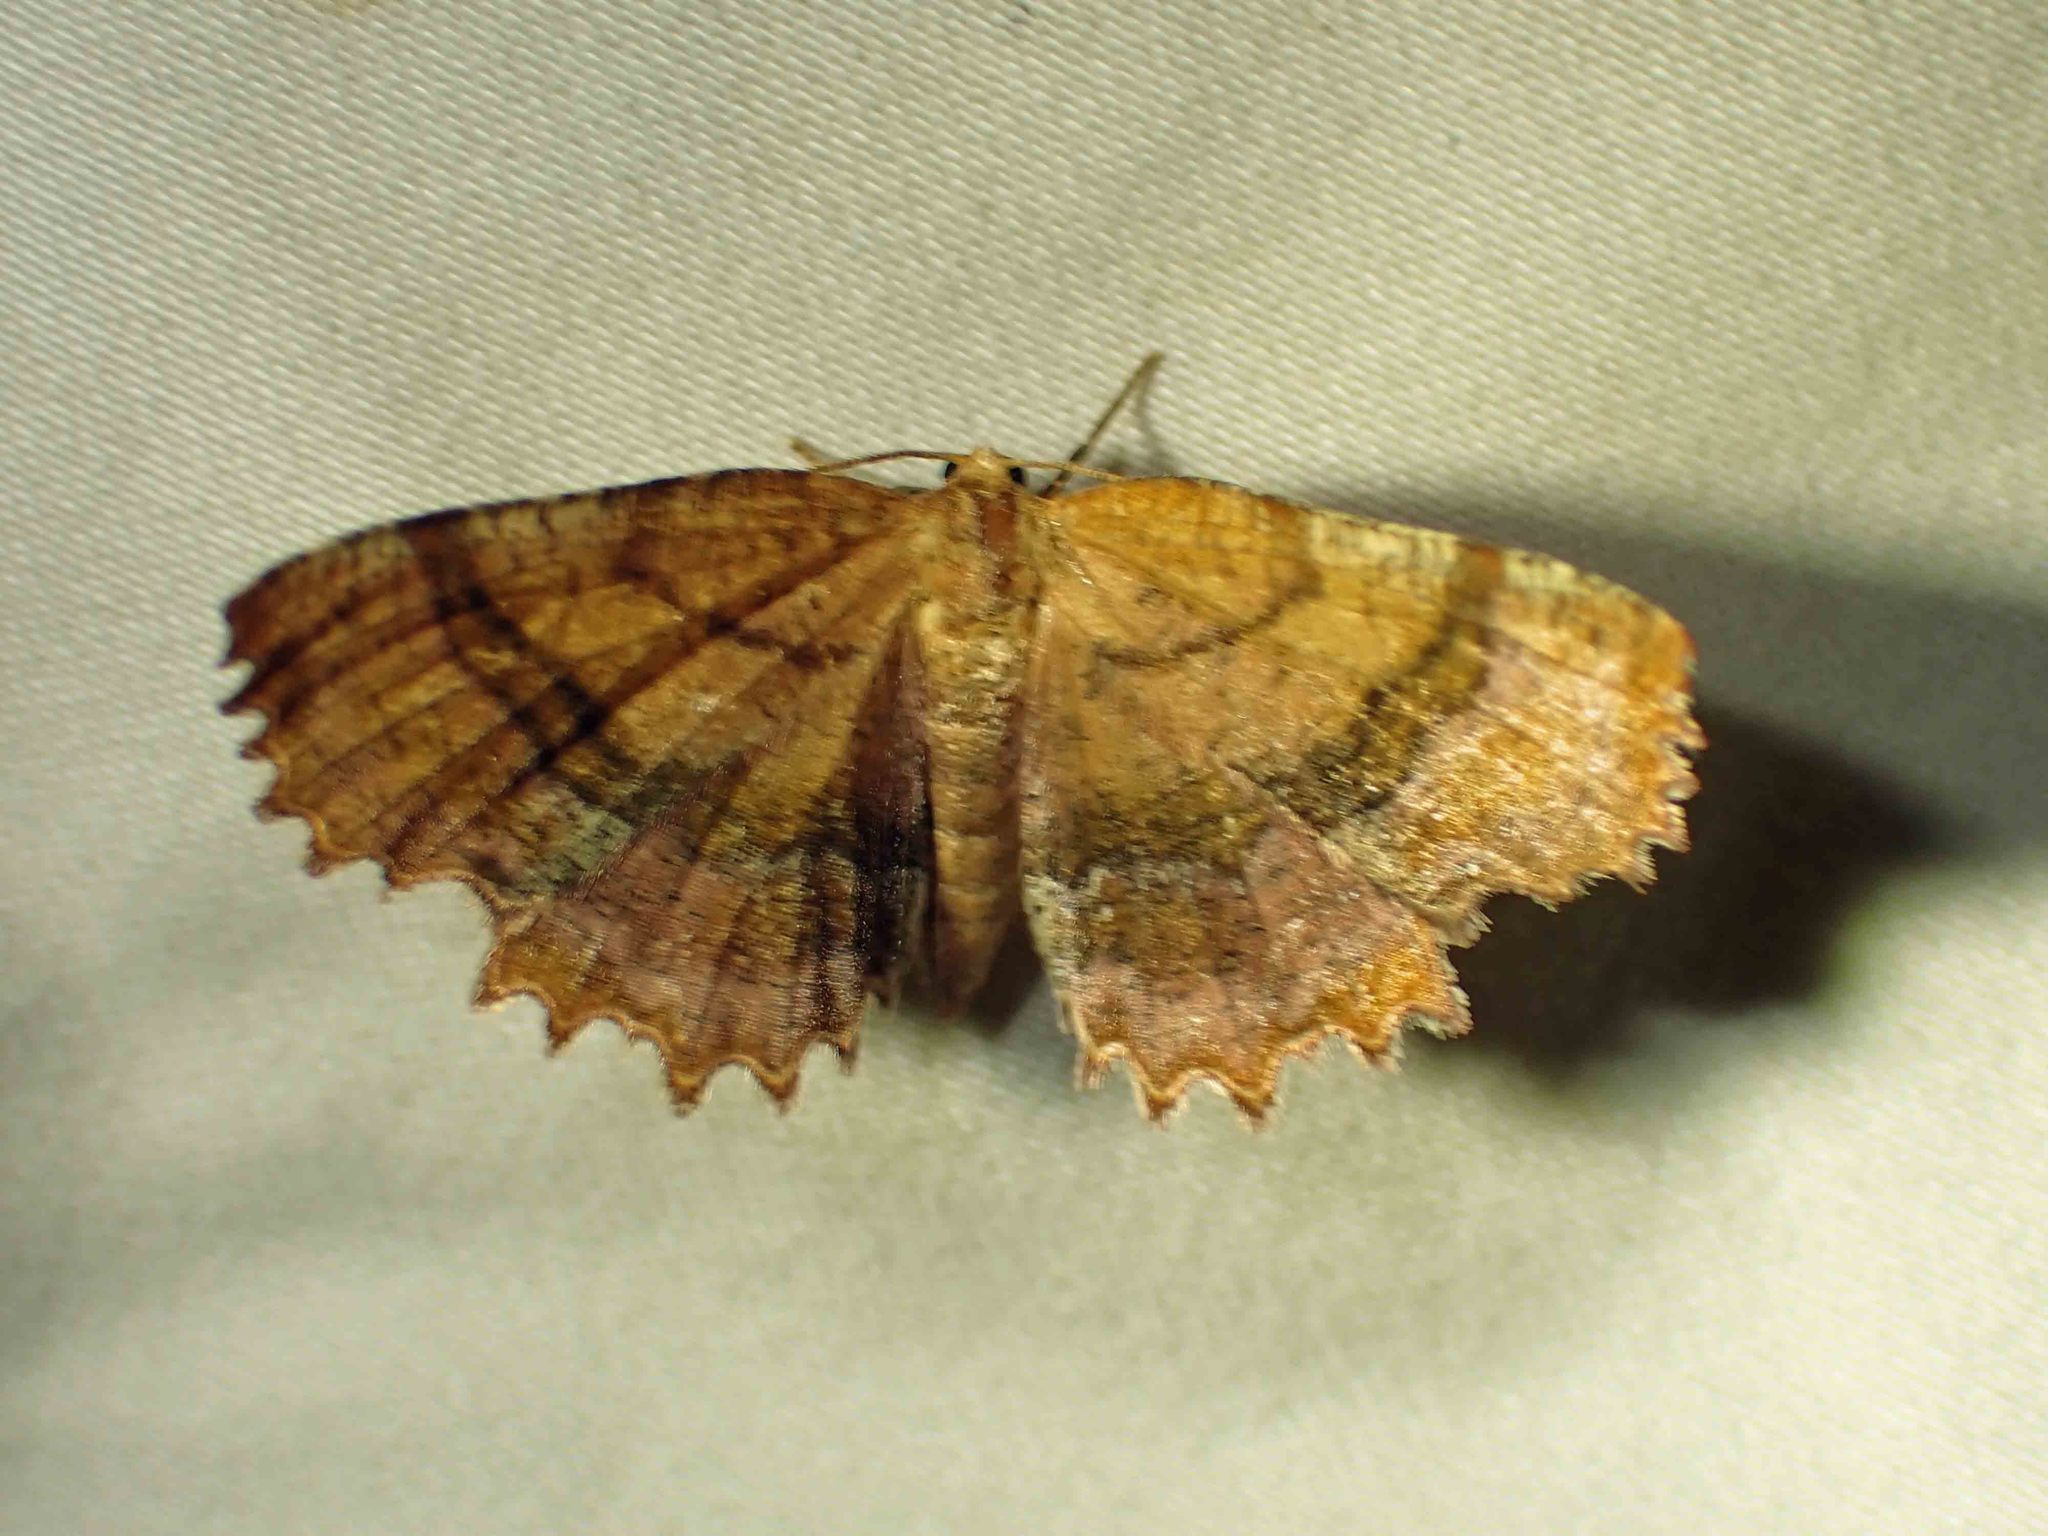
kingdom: Animalia
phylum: Arthropoda
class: Insecta
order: Lepidoptera
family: Geometridae
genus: Cepphis
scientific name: Cepphis armataria
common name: Scallop moth
